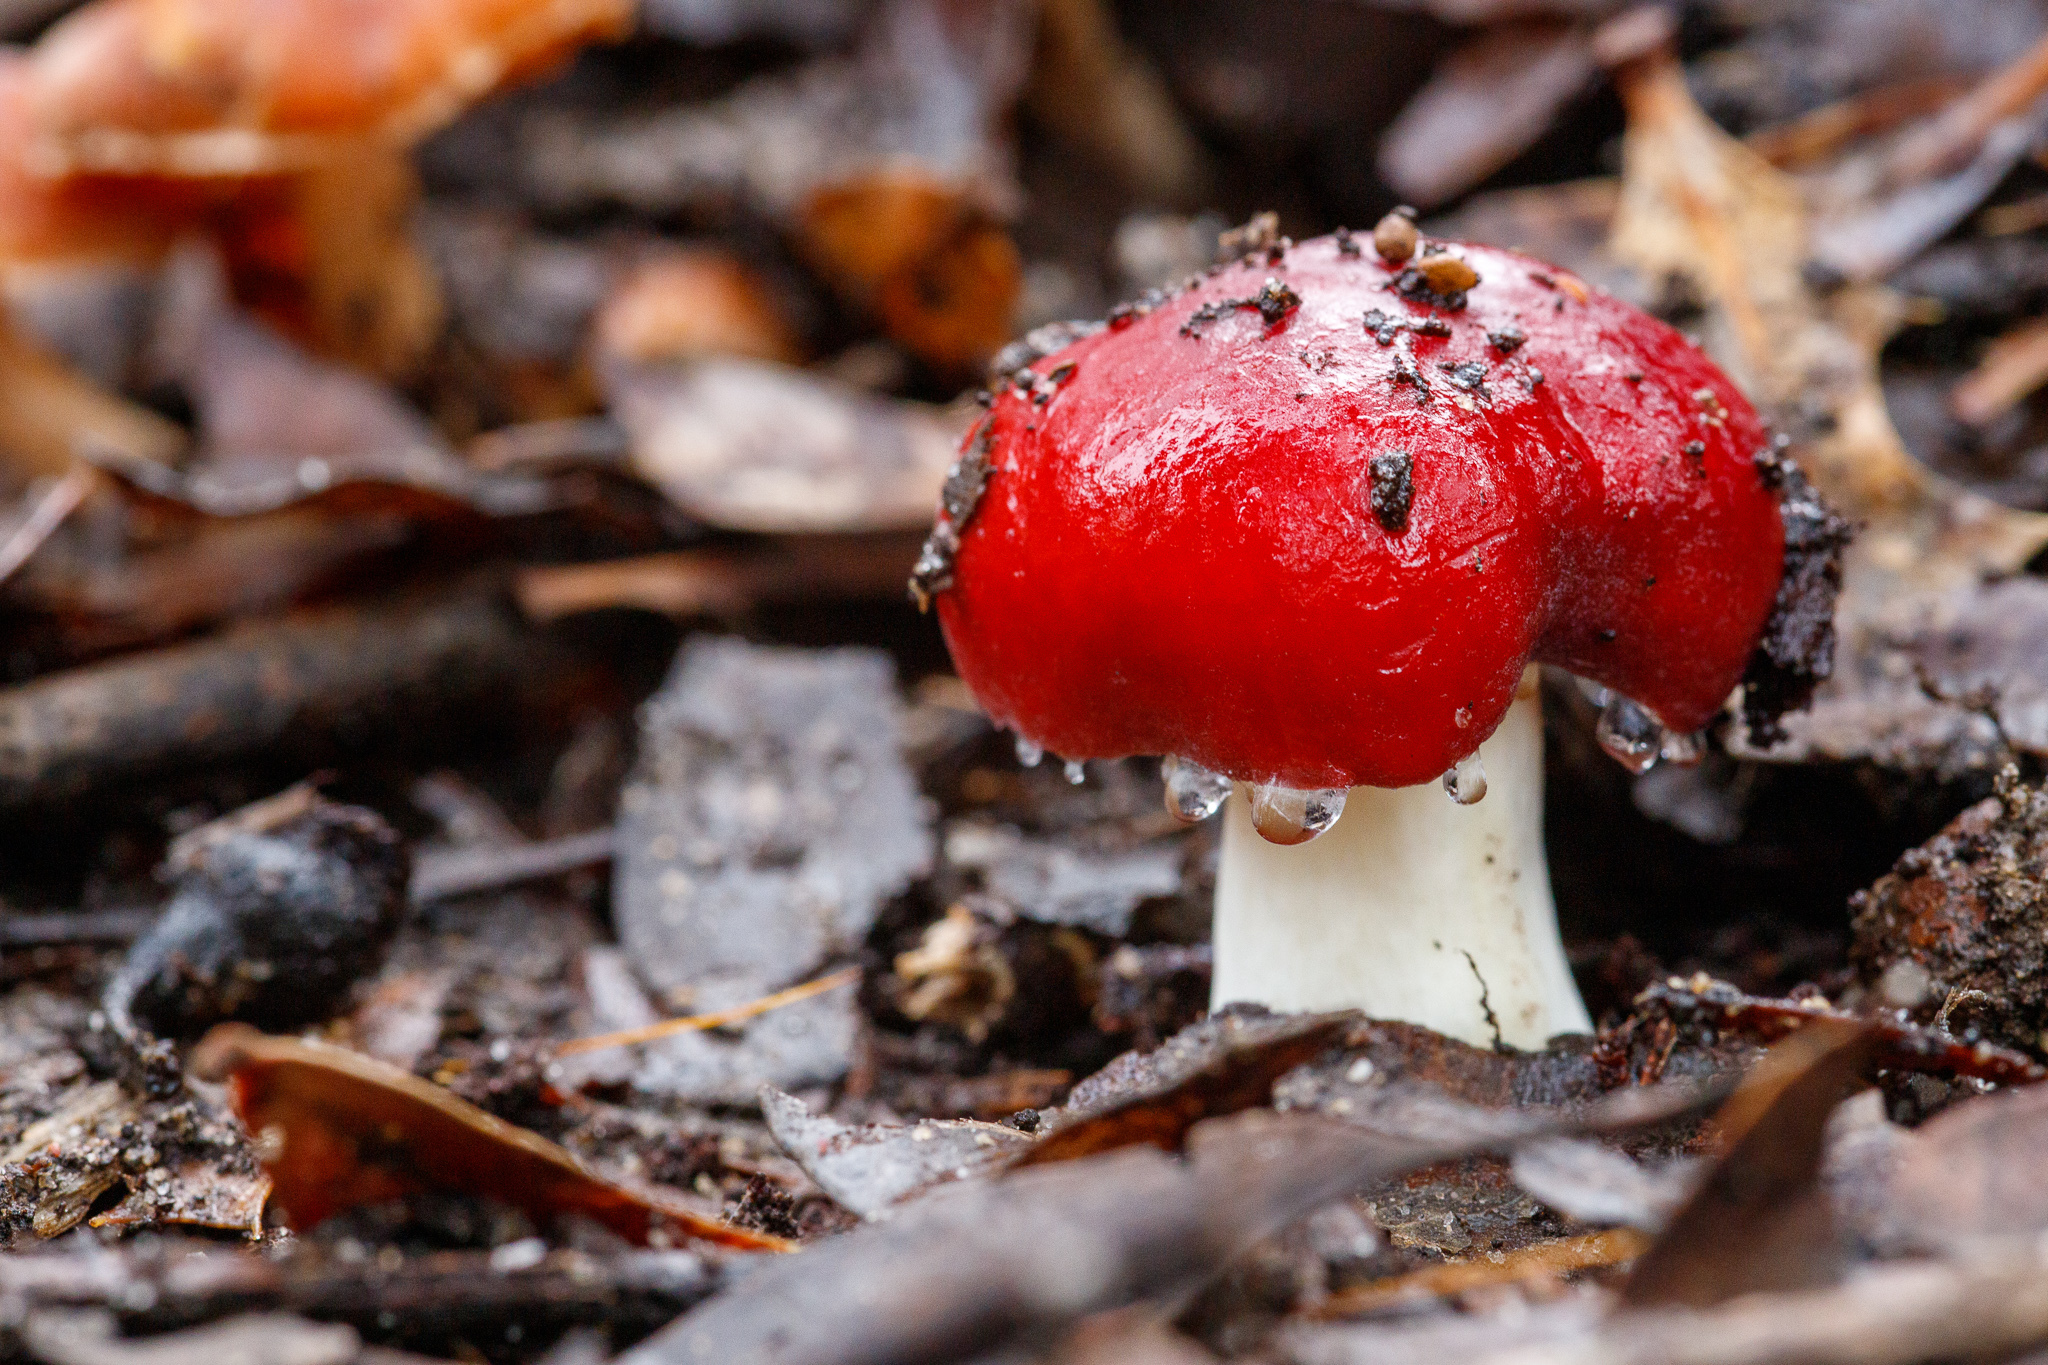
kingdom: Fungi
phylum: Basidiomycota
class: Agaricomycetes
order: Russulales
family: Russulaceae
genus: Russula
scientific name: Russula persanguinea
